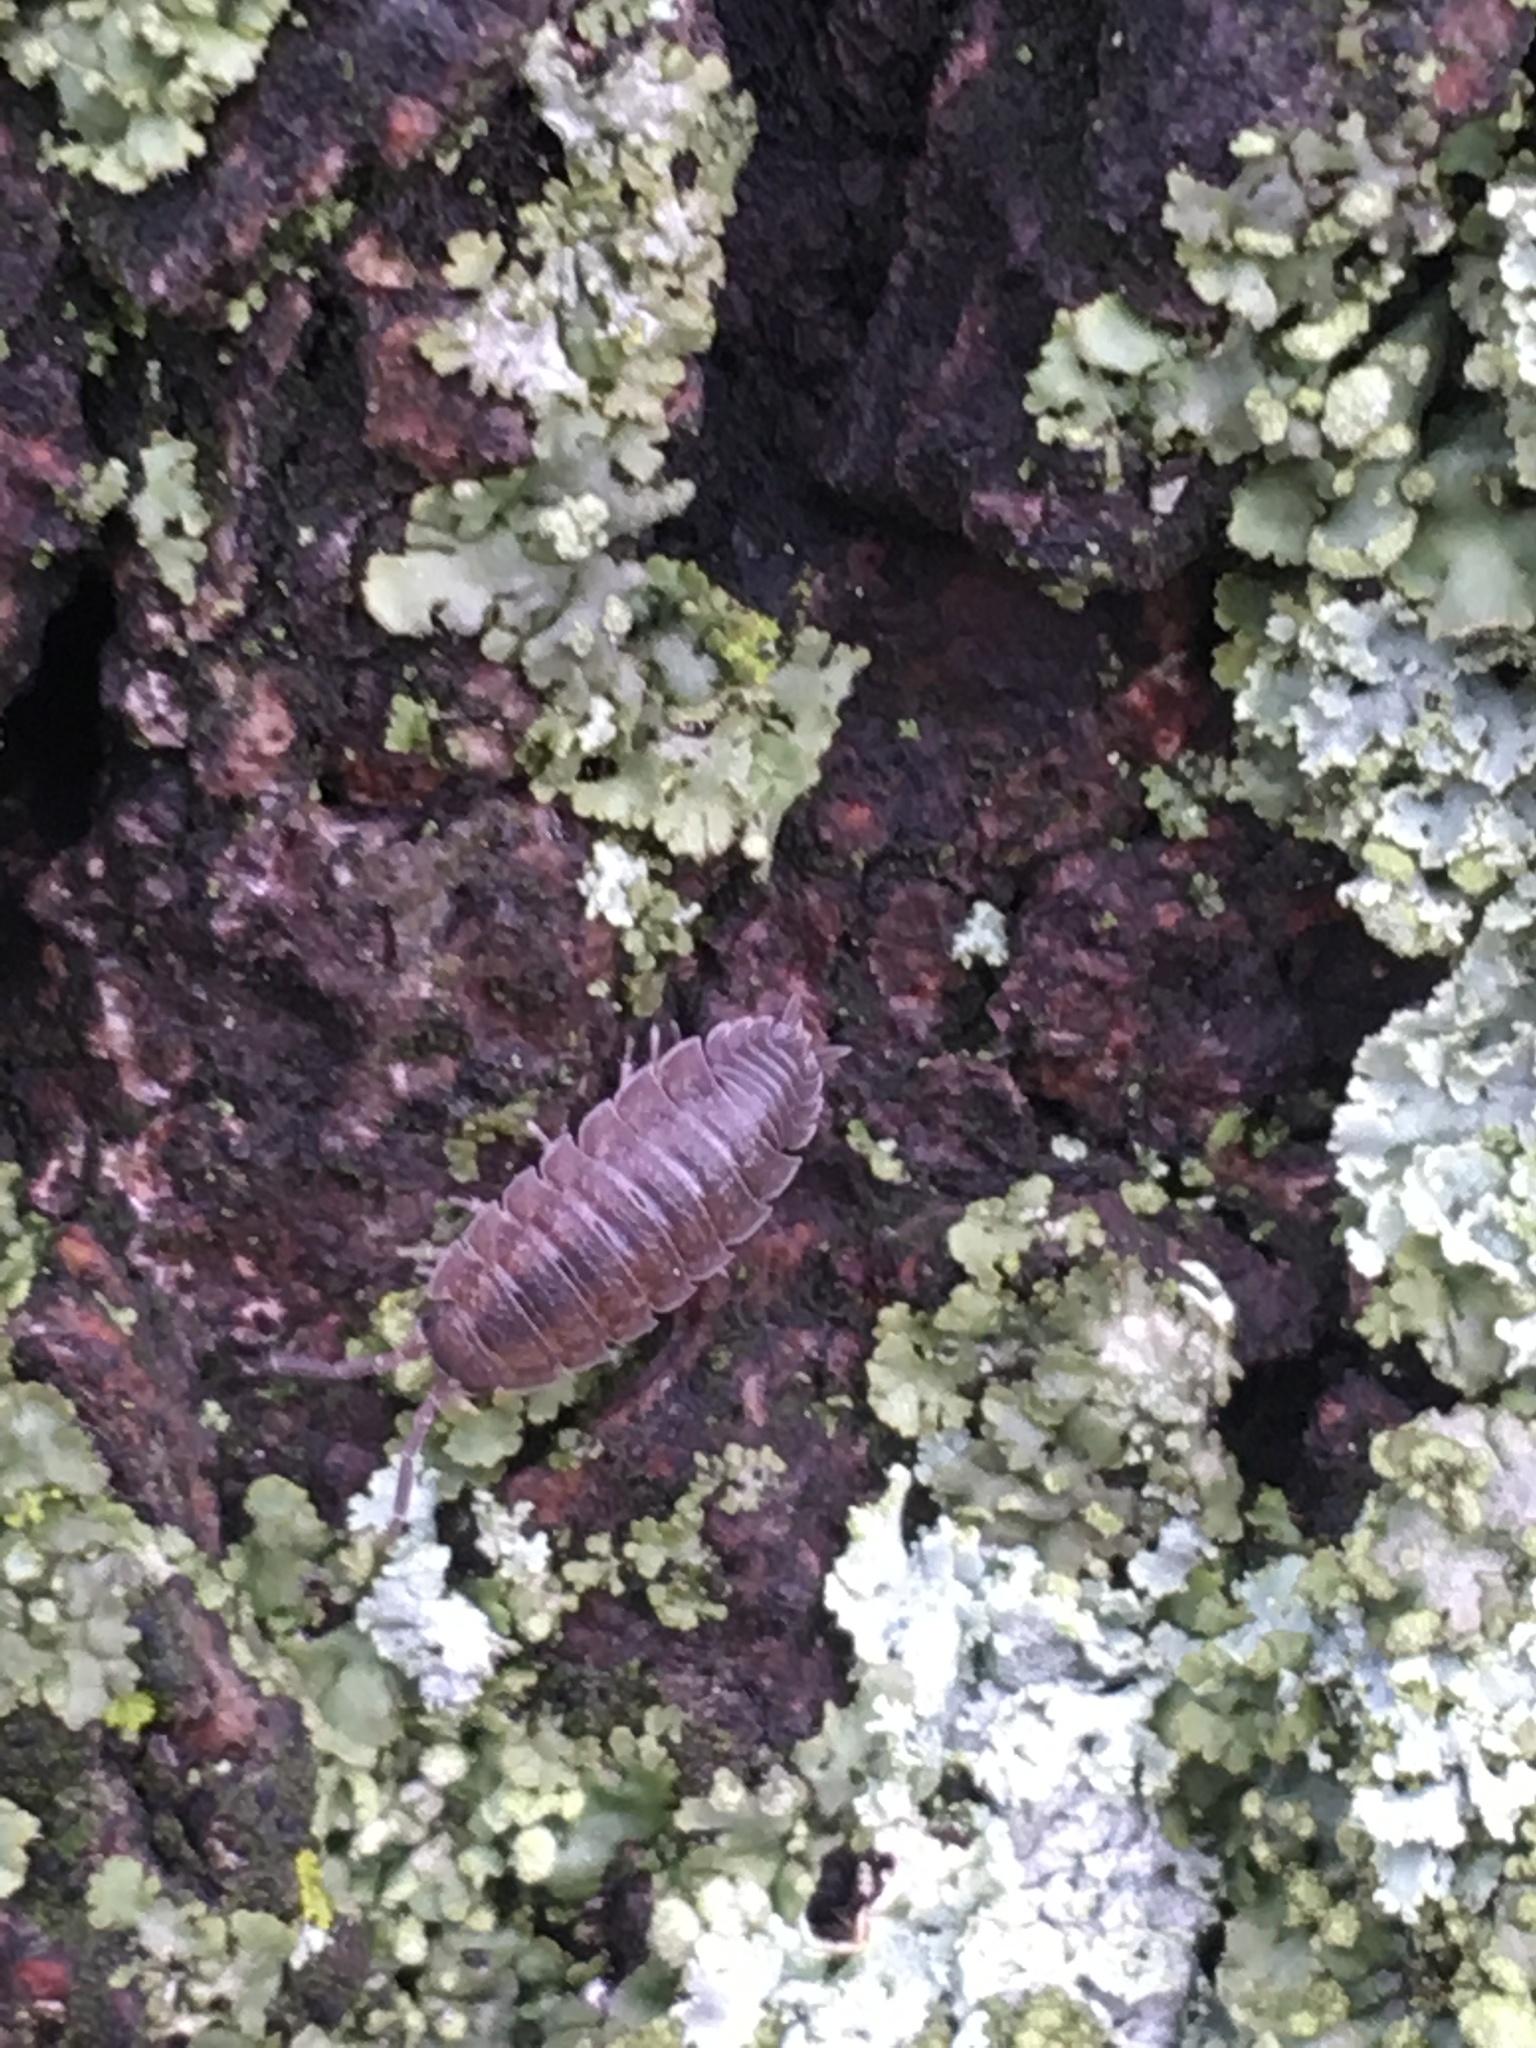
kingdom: Animalia
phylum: Arthropoda
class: Malacostraca
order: Isopoda
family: Porcellionidae
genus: Porcellio
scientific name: Porcellio scaber
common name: Common rough woodlouse
